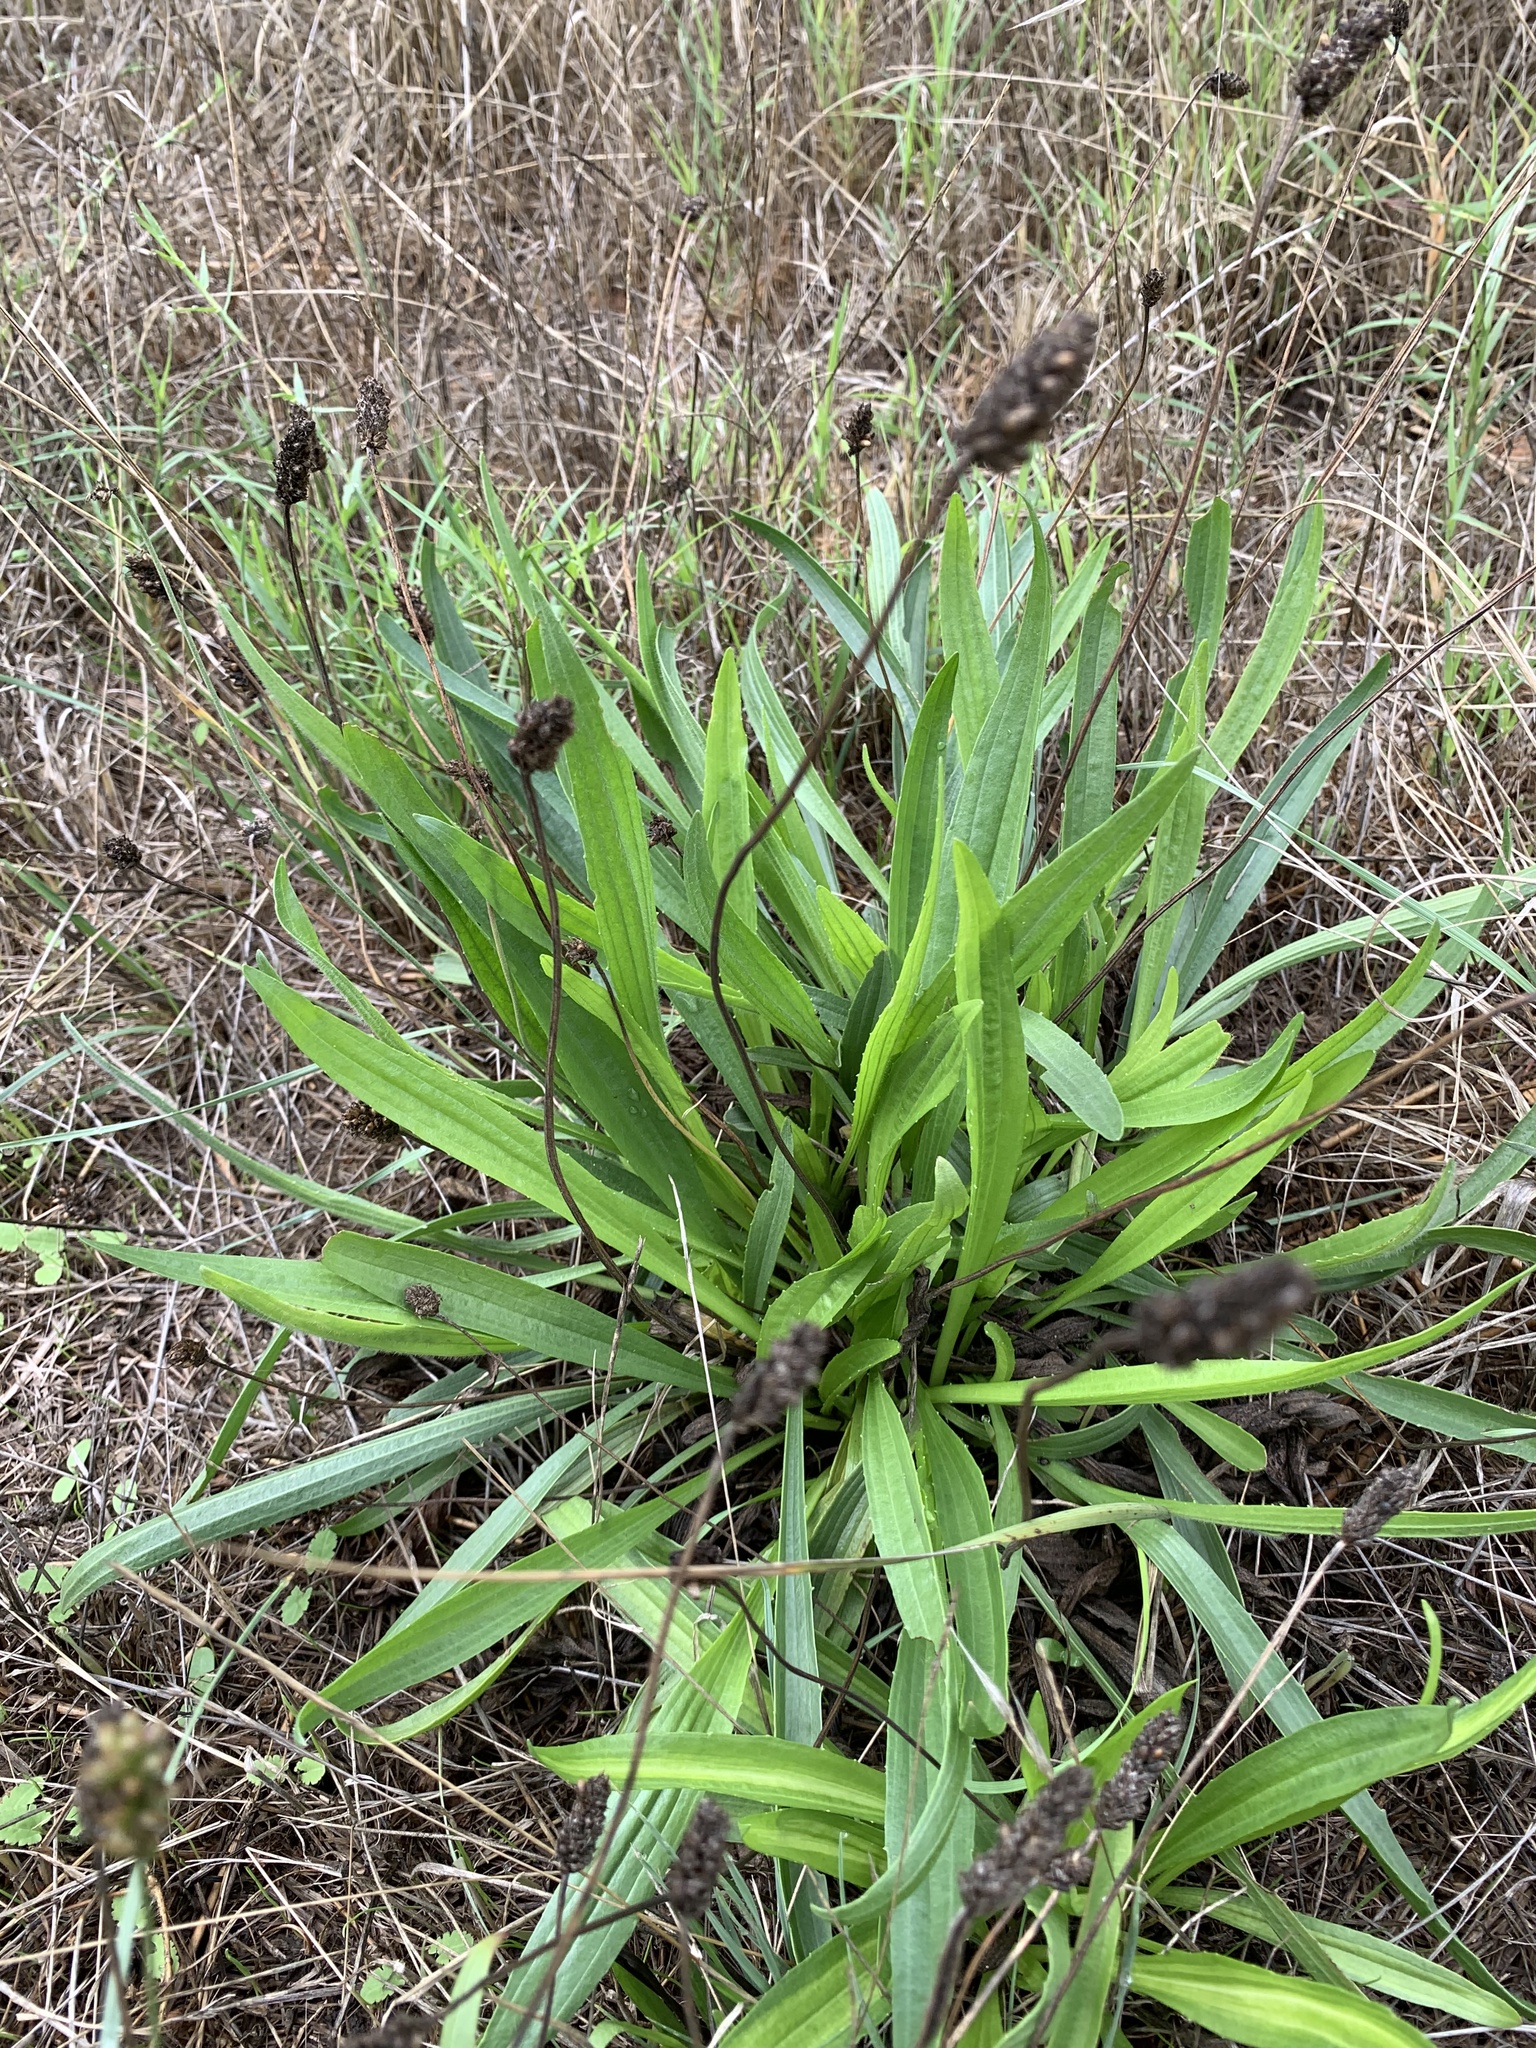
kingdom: Plantae
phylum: Tracheophyta
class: Magnoliopsida
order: Lamiales
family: Plantaginaceae
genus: Plantago
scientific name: Plantago lanceolata
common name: Ribwort plantain
